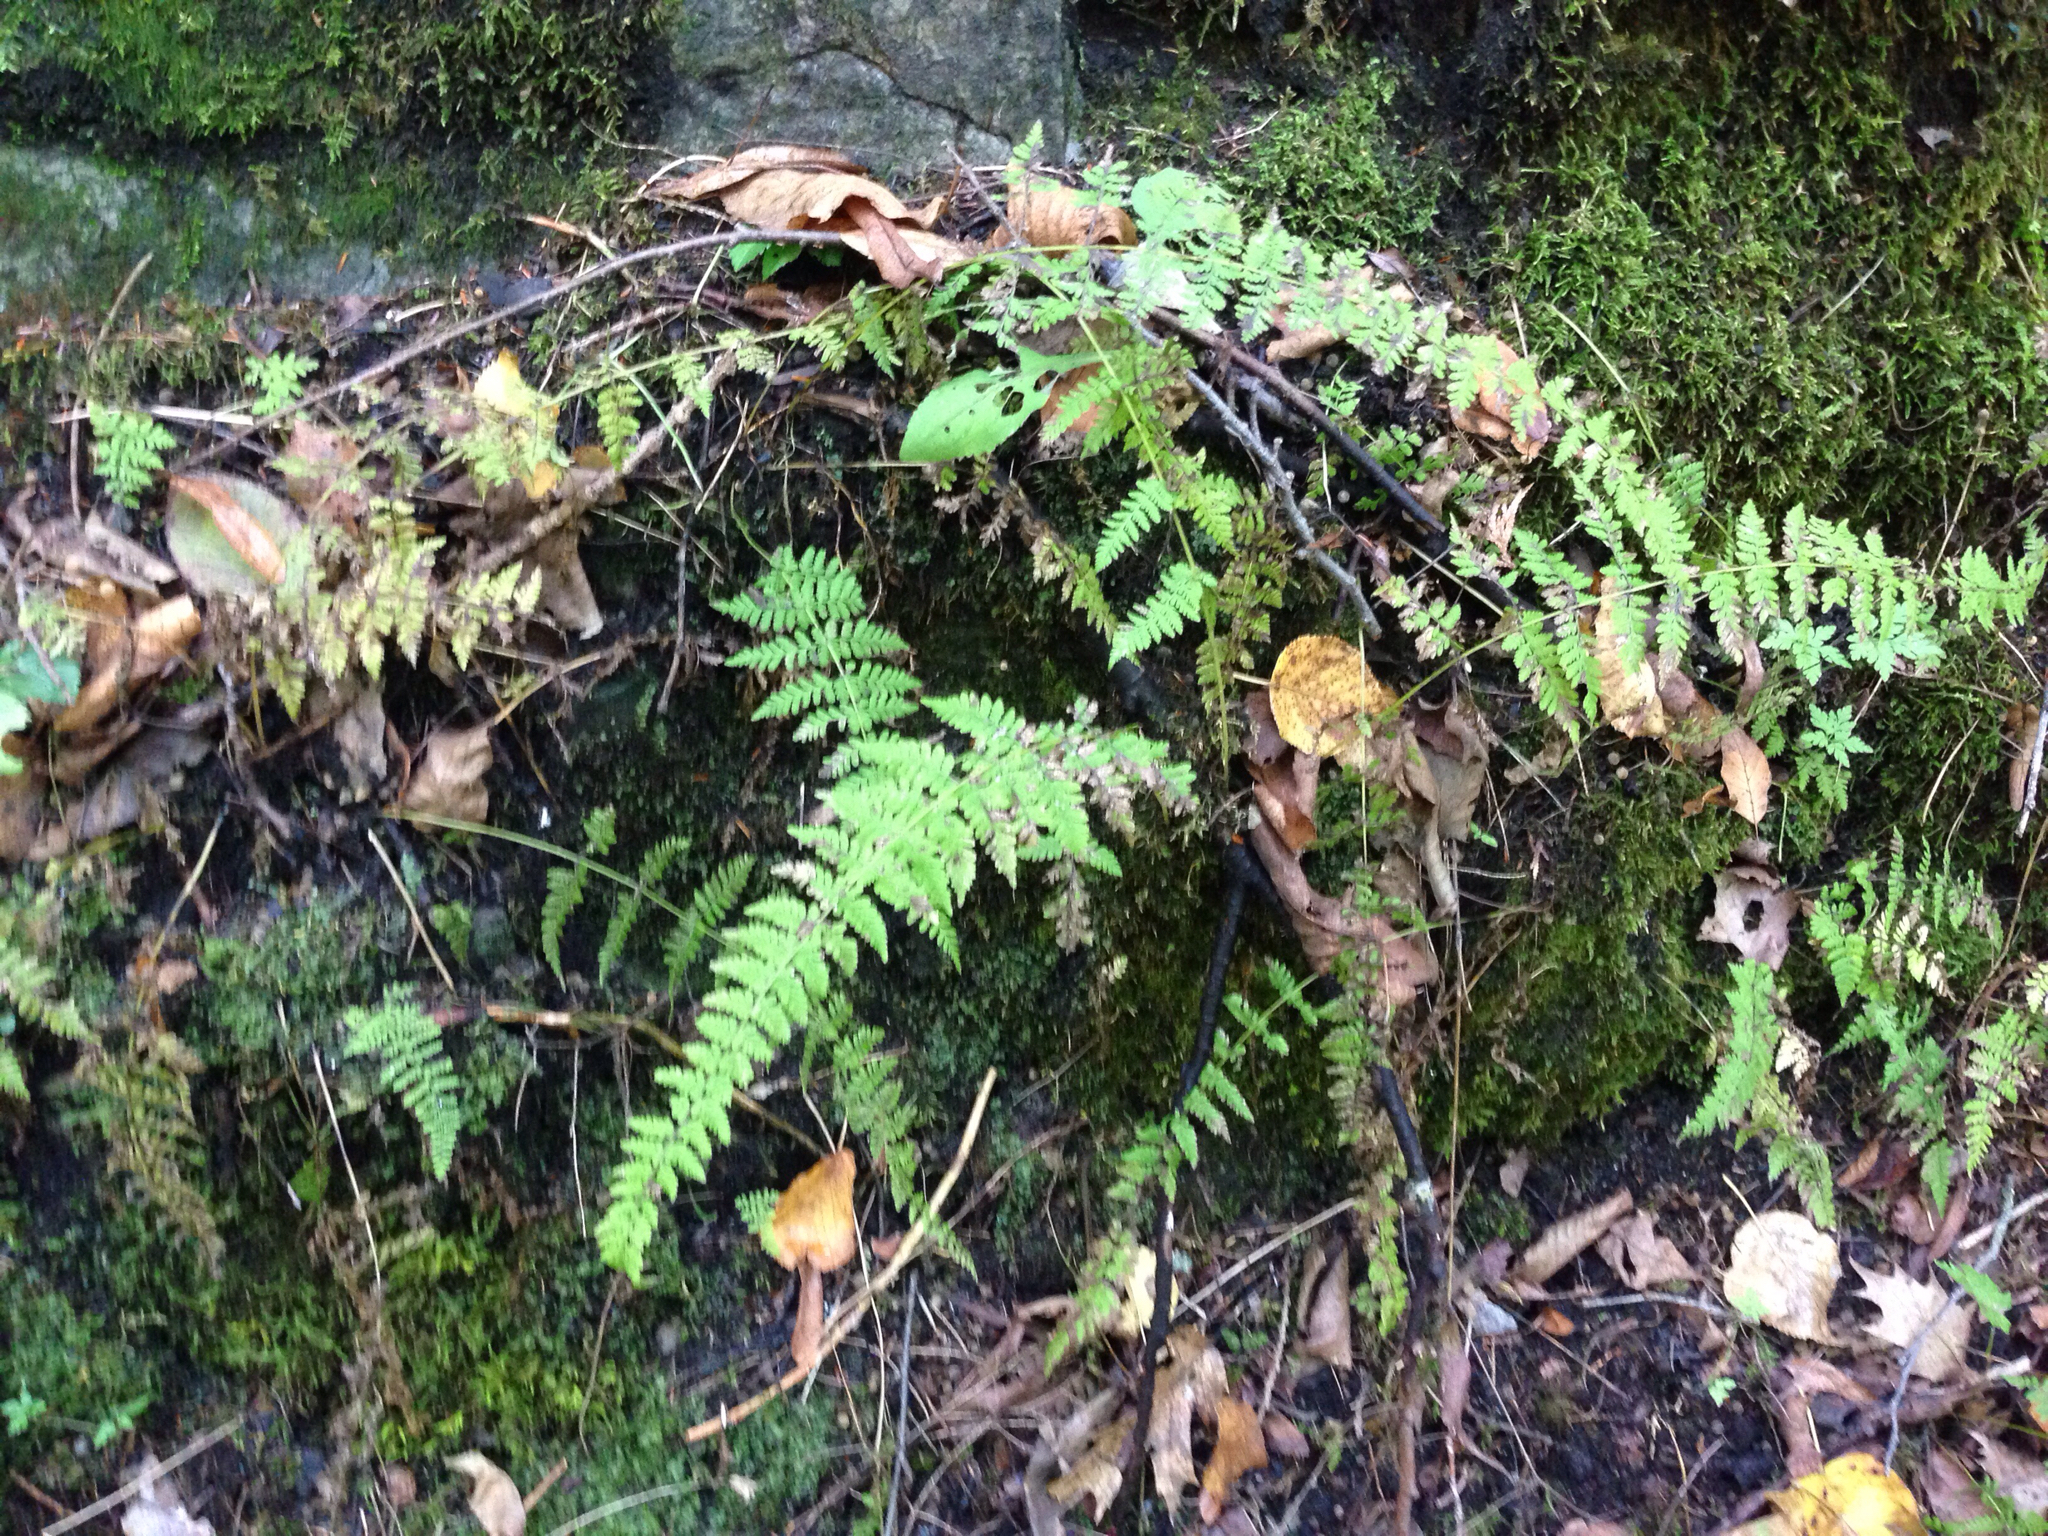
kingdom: Plantae
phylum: Tracheophyta
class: Polypodiopsida
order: Polypodiales
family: Cystopteridaceae
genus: Cystopteris
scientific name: Cystopteris bulbifera
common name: Bulblet bladder fern
